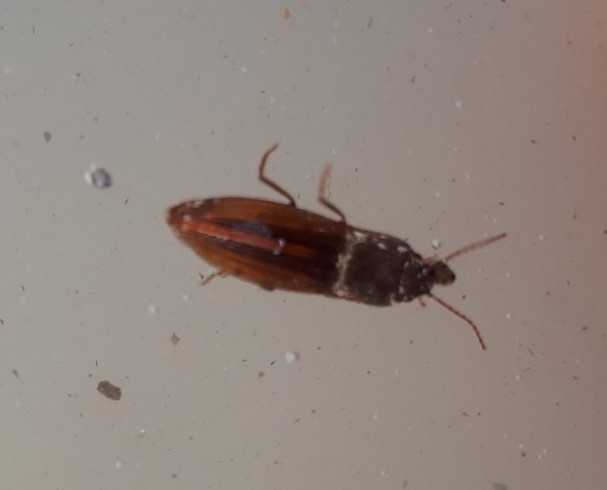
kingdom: Animalia
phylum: Arthropoda
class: Insecta
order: Coleoptera
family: Elateridae
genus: Agriotes
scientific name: Agriotes lineatus
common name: Lined click beetle
